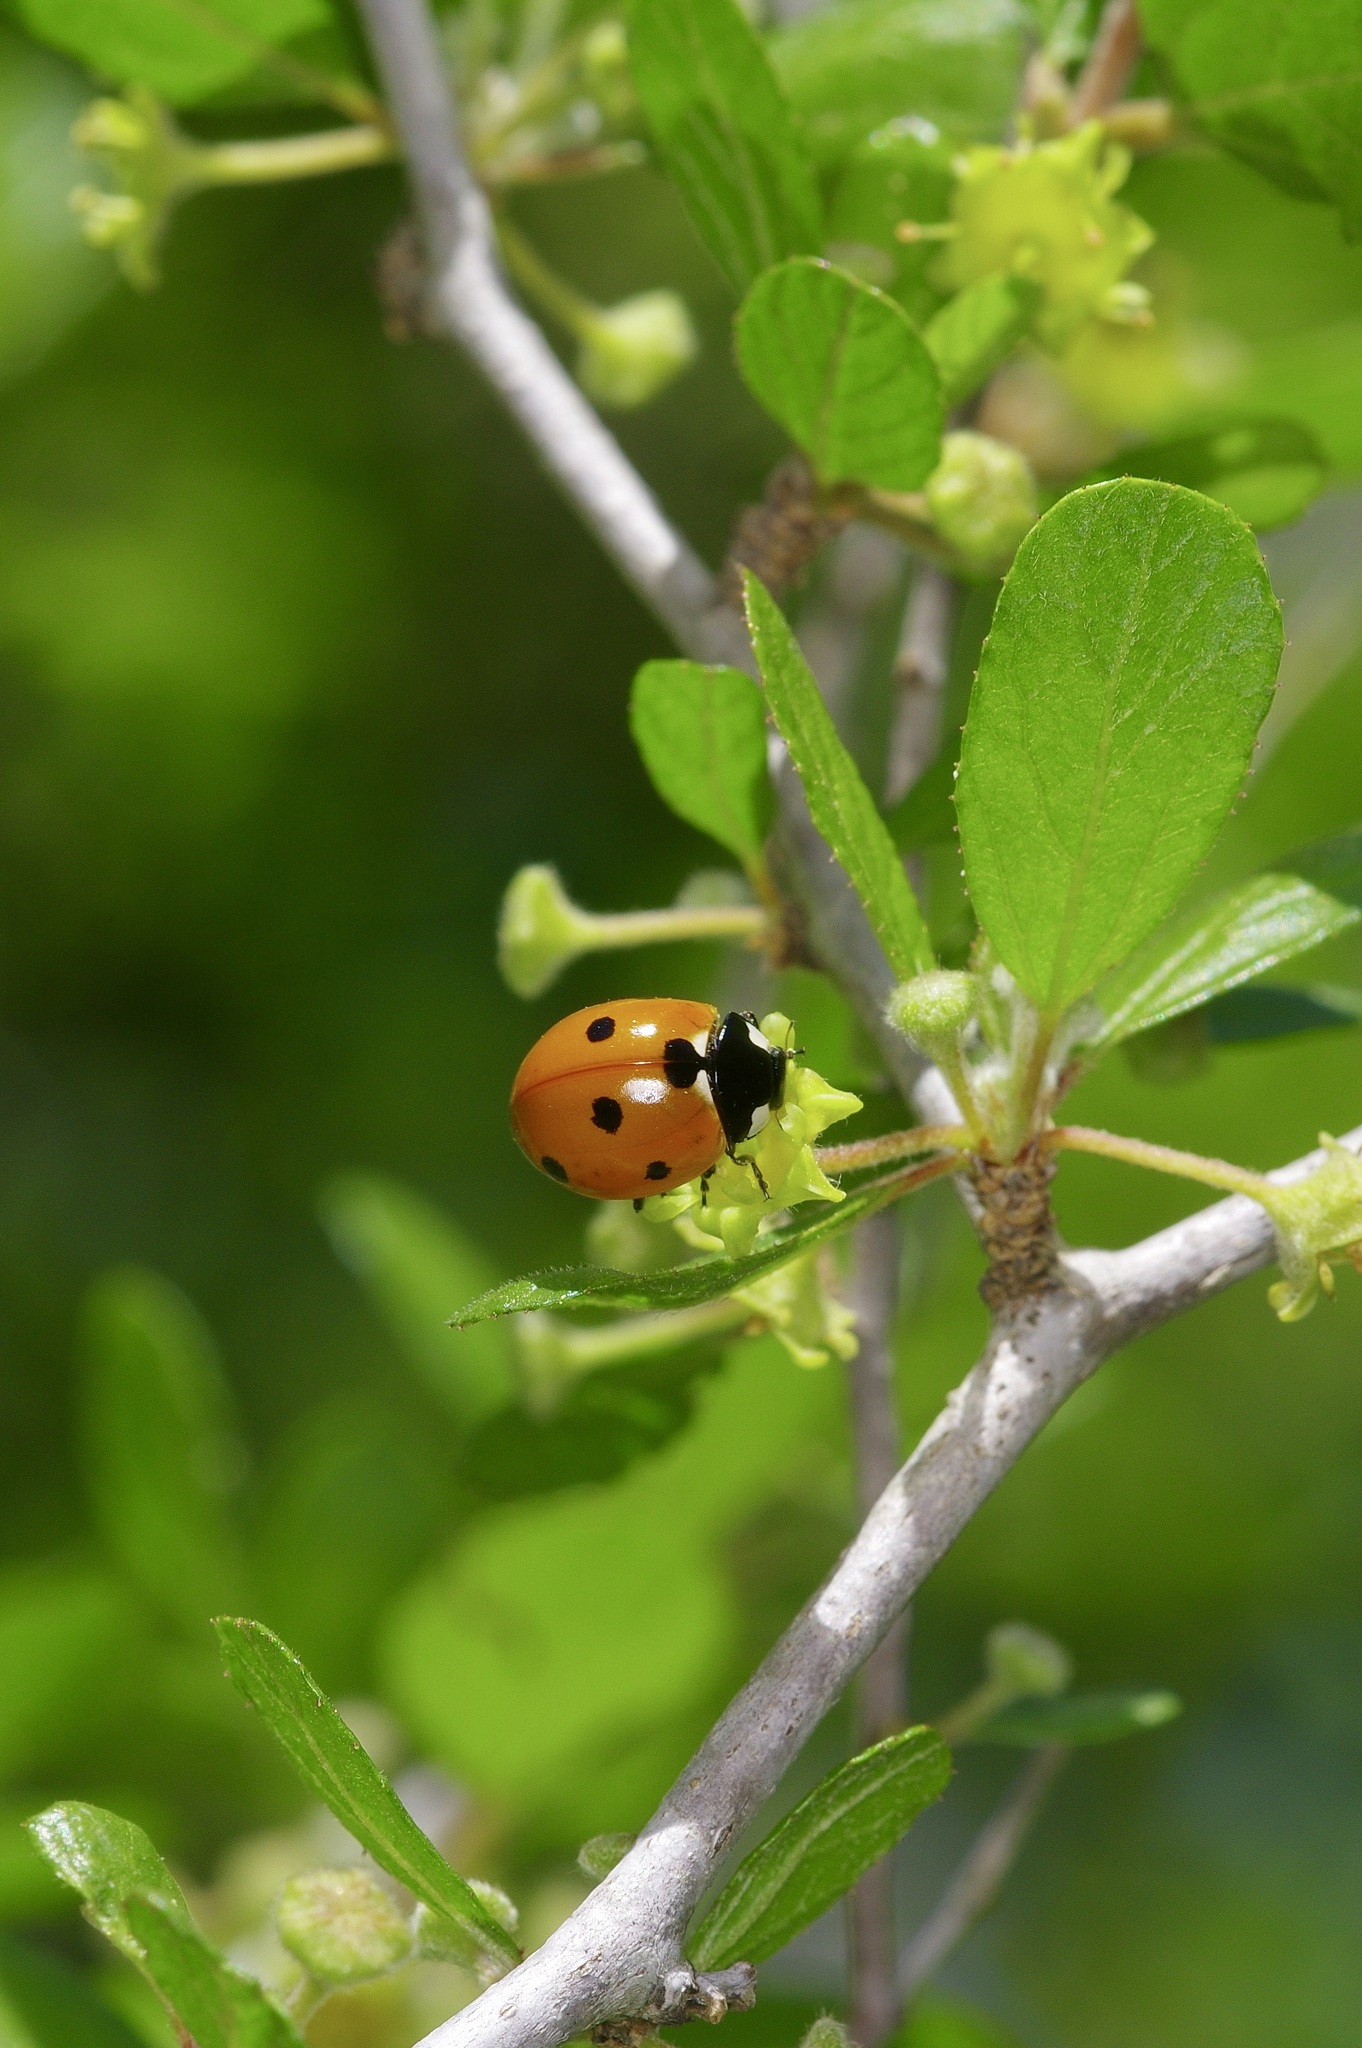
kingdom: Animalia
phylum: Arthropoda
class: Insecta
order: Coleoptera
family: Coccinellidae
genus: Coccinella
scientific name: Coccinella septempunctata
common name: Sevenspotted lady beetle
